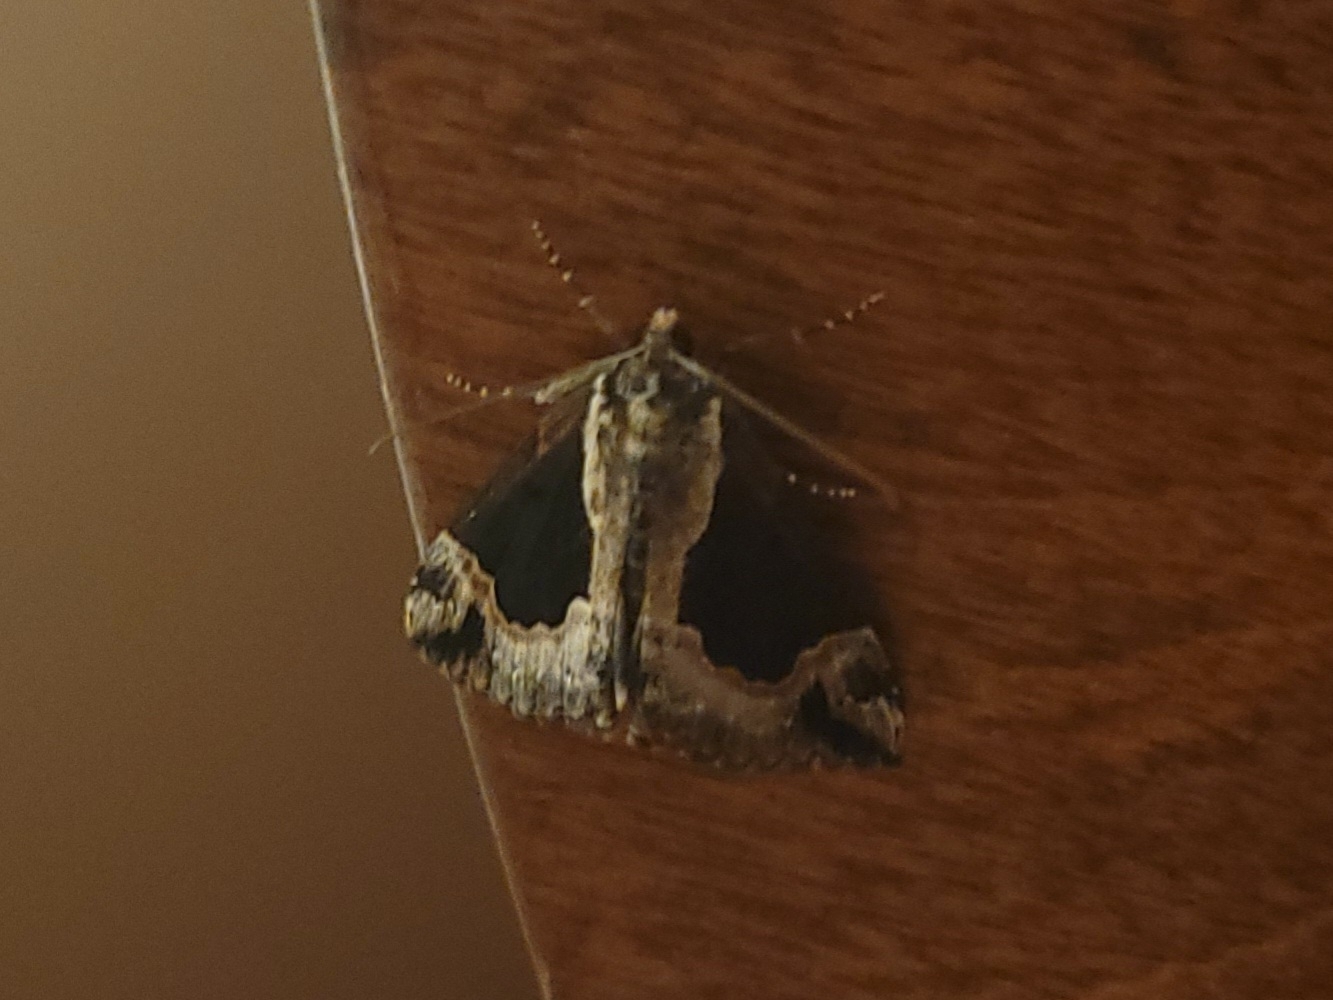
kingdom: Animalia
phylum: Arthropoda
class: Insecta
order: Lepidoptera
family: Erebidae
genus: Hypena
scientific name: Hypena baltimoralis
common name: Baltimore snout
